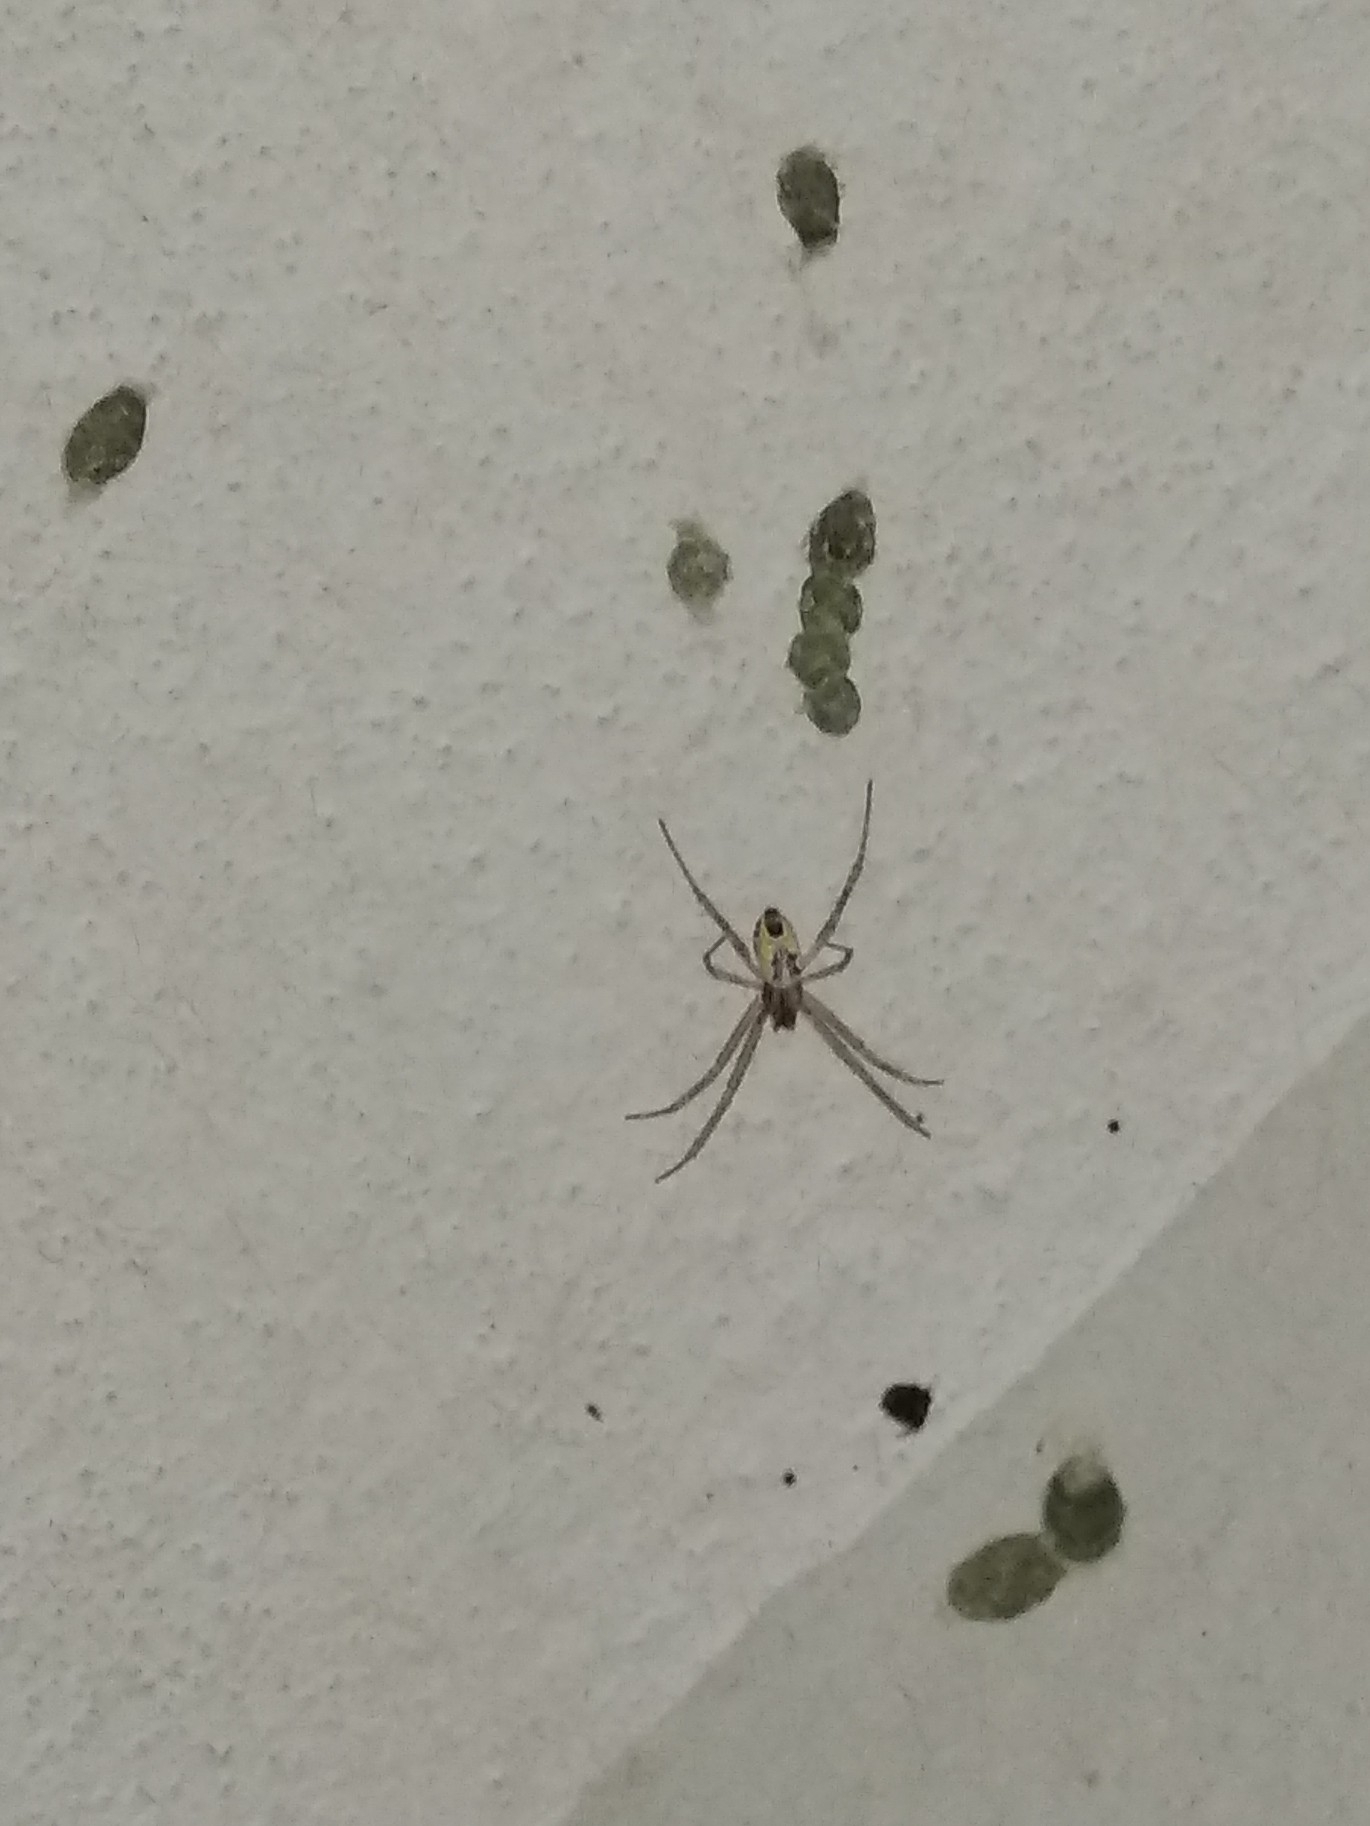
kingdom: Animalia
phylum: Arthropoda
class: Arachnida
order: Araneae
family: Araneidae
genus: Cyrtophora
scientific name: Cyrtophora cicatrosa
